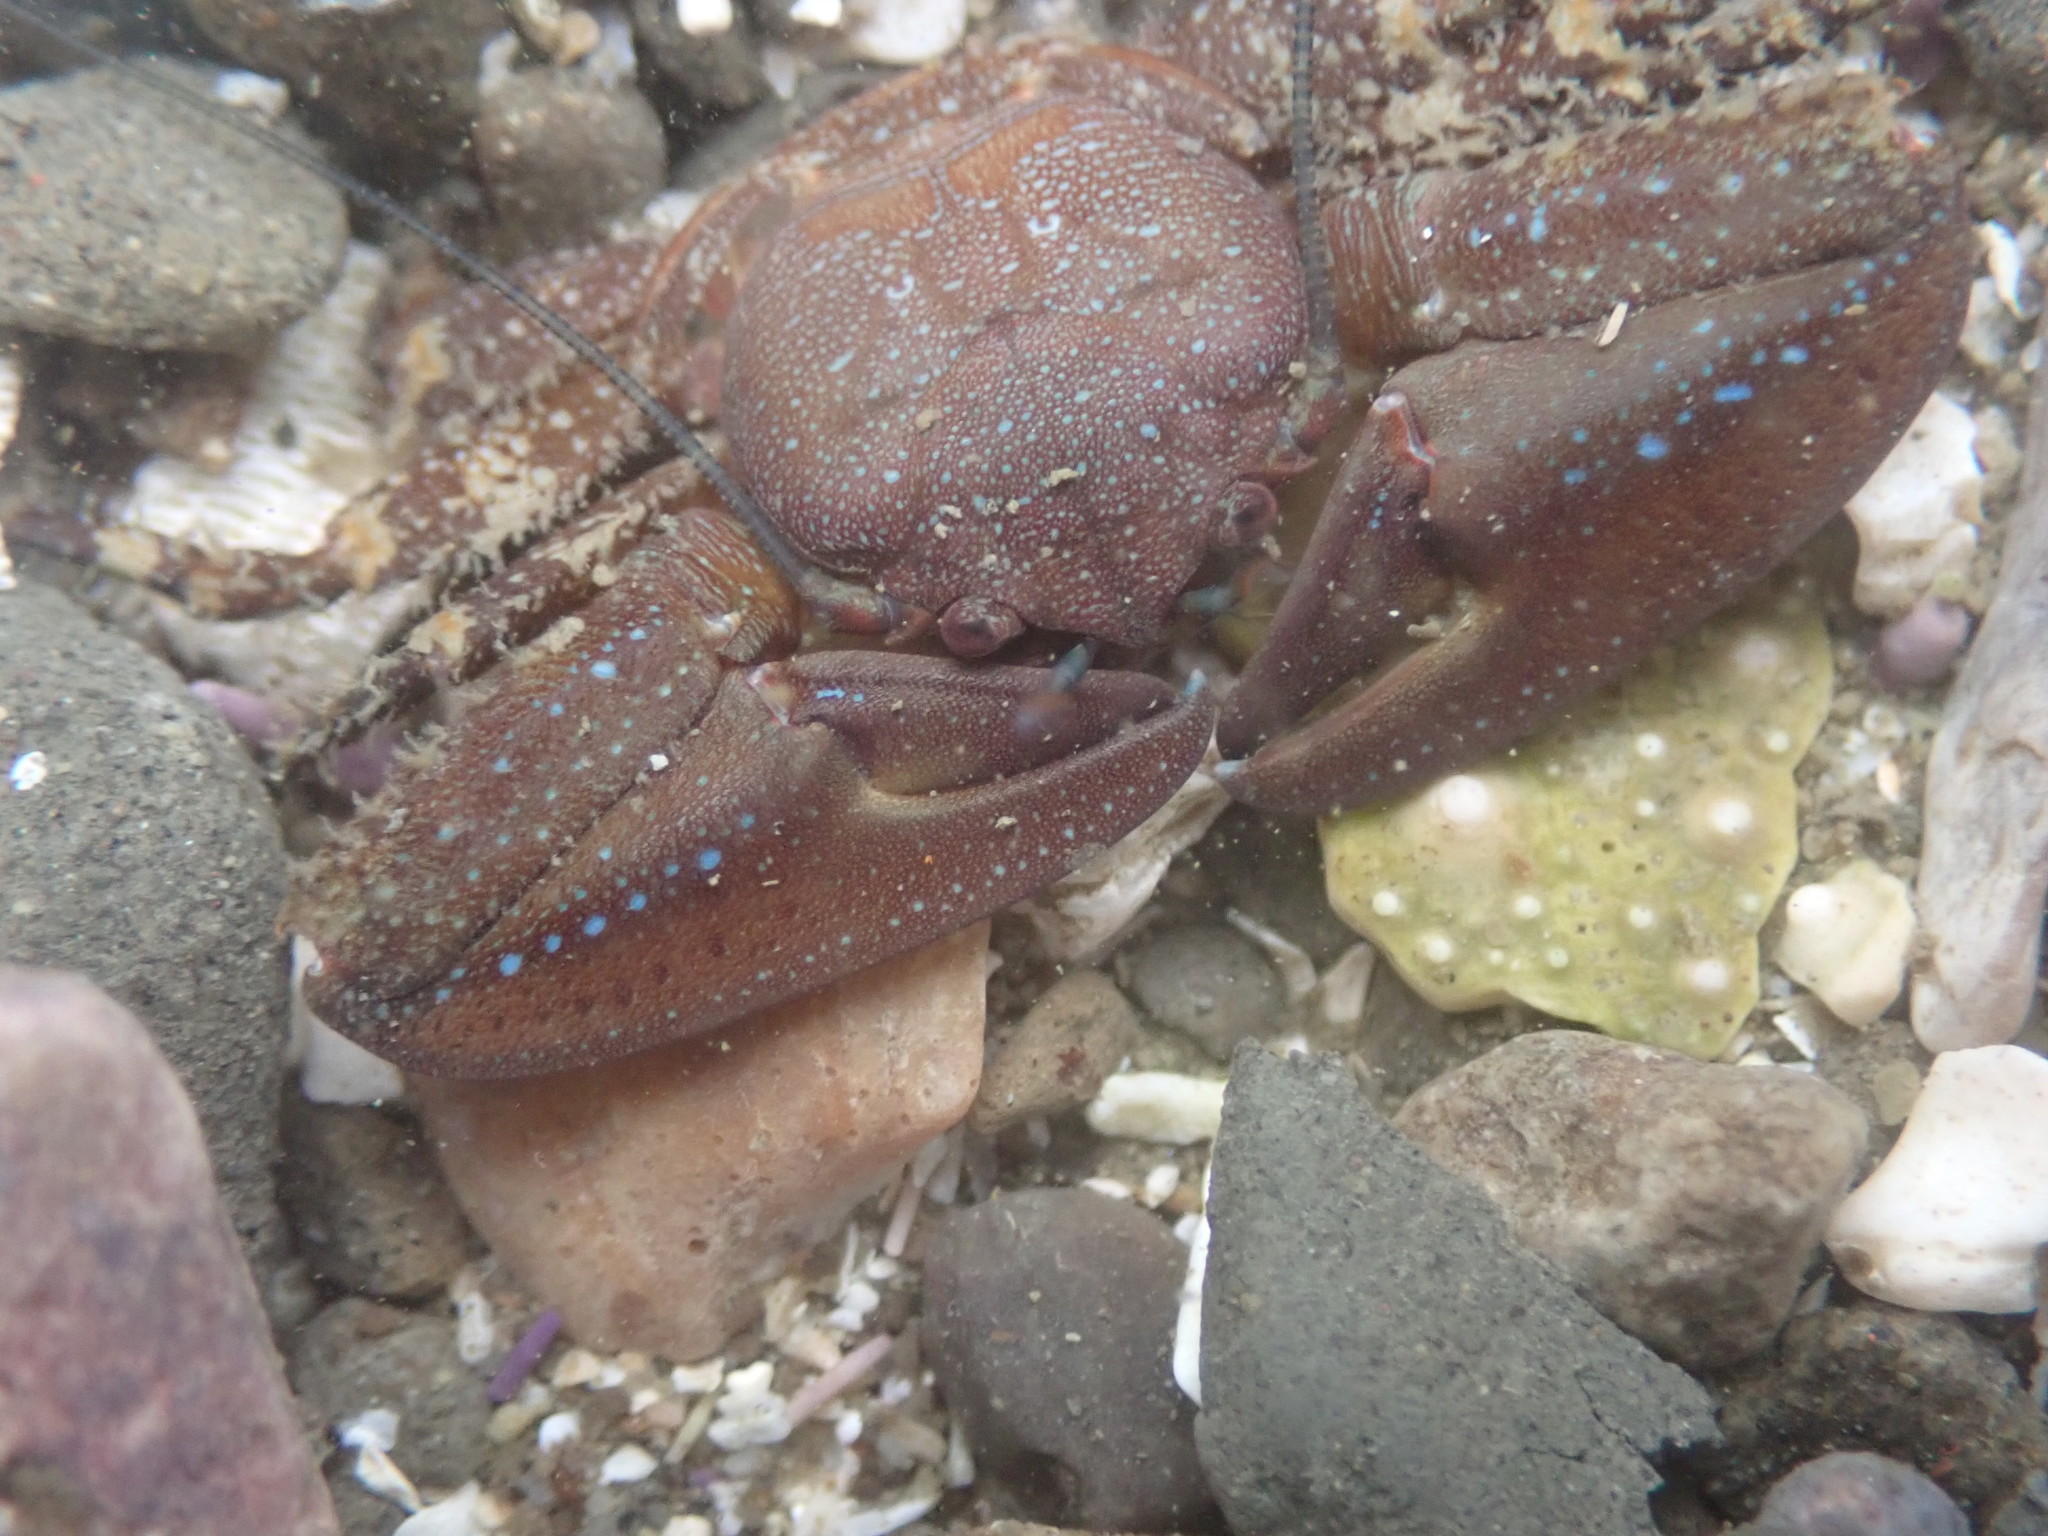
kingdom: Animalia
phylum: Arthropoda
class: Malacostraca
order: Decapoda
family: Porcellanidae
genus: Petrolisthes
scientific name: Petrolisthes manimaculis
